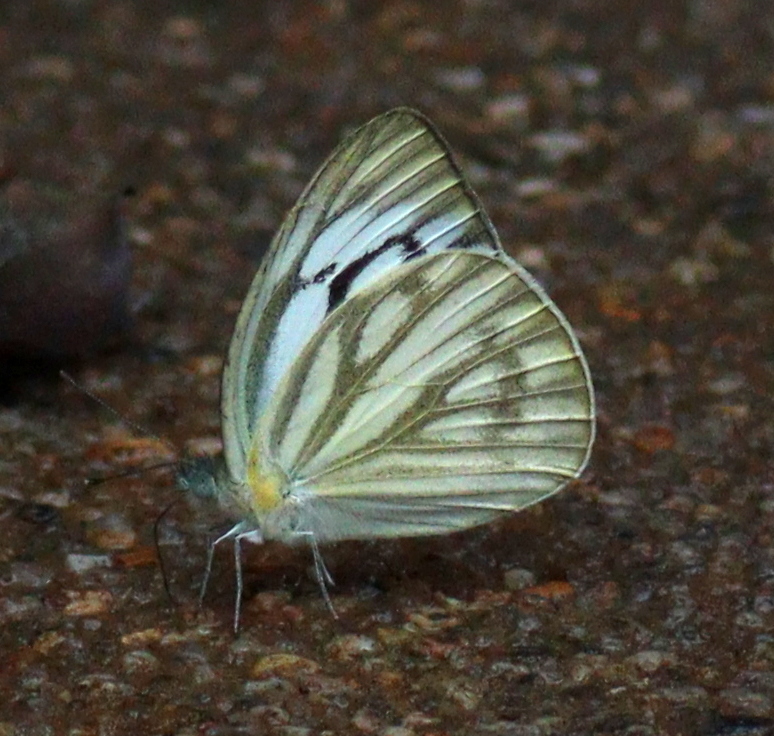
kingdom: Animalia
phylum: Arthropoda
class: Insecta
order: Lepidoptera
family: Pieridae
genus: Cepora
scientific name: Cepora nerissa
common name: Common gull
